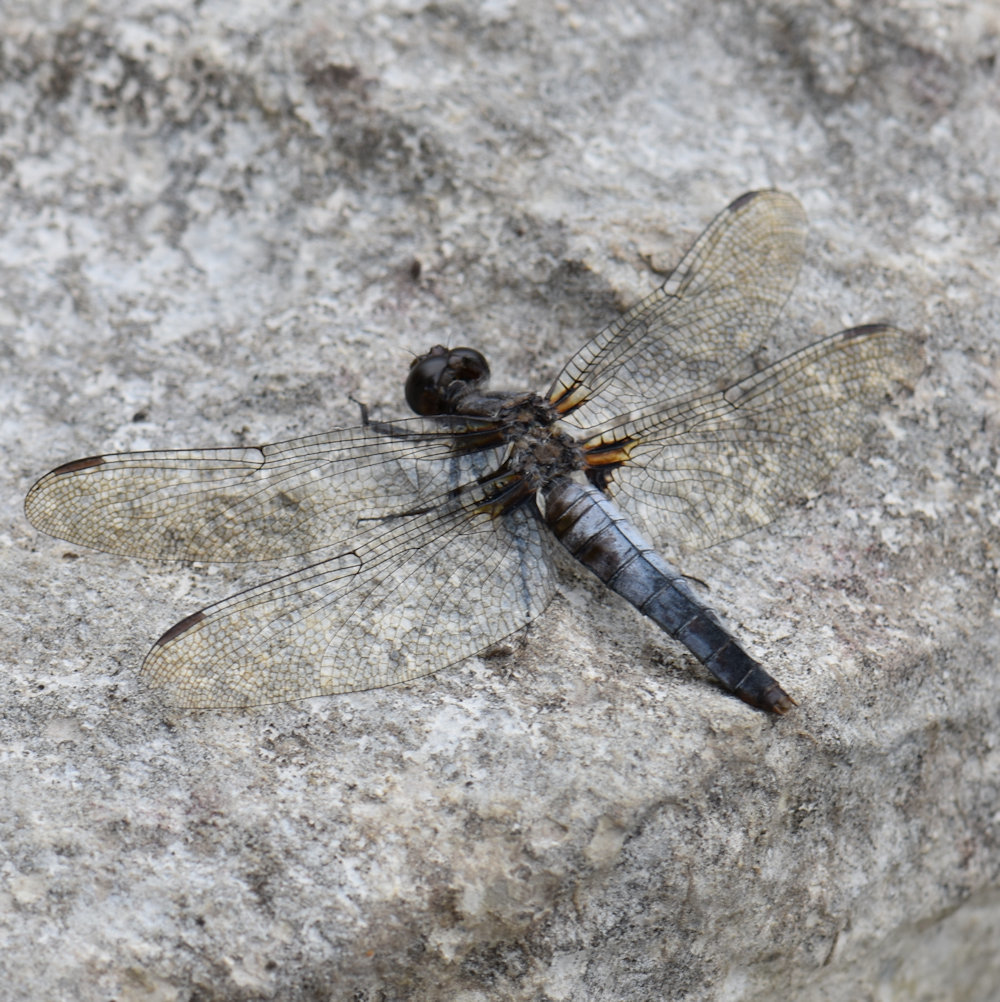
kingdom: Animalia
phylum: Arthropoda
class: Insecta
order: Odonata
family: Libellulidae
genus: Ladona
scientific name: Ladona julia
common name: Chalk-fronted corporal
